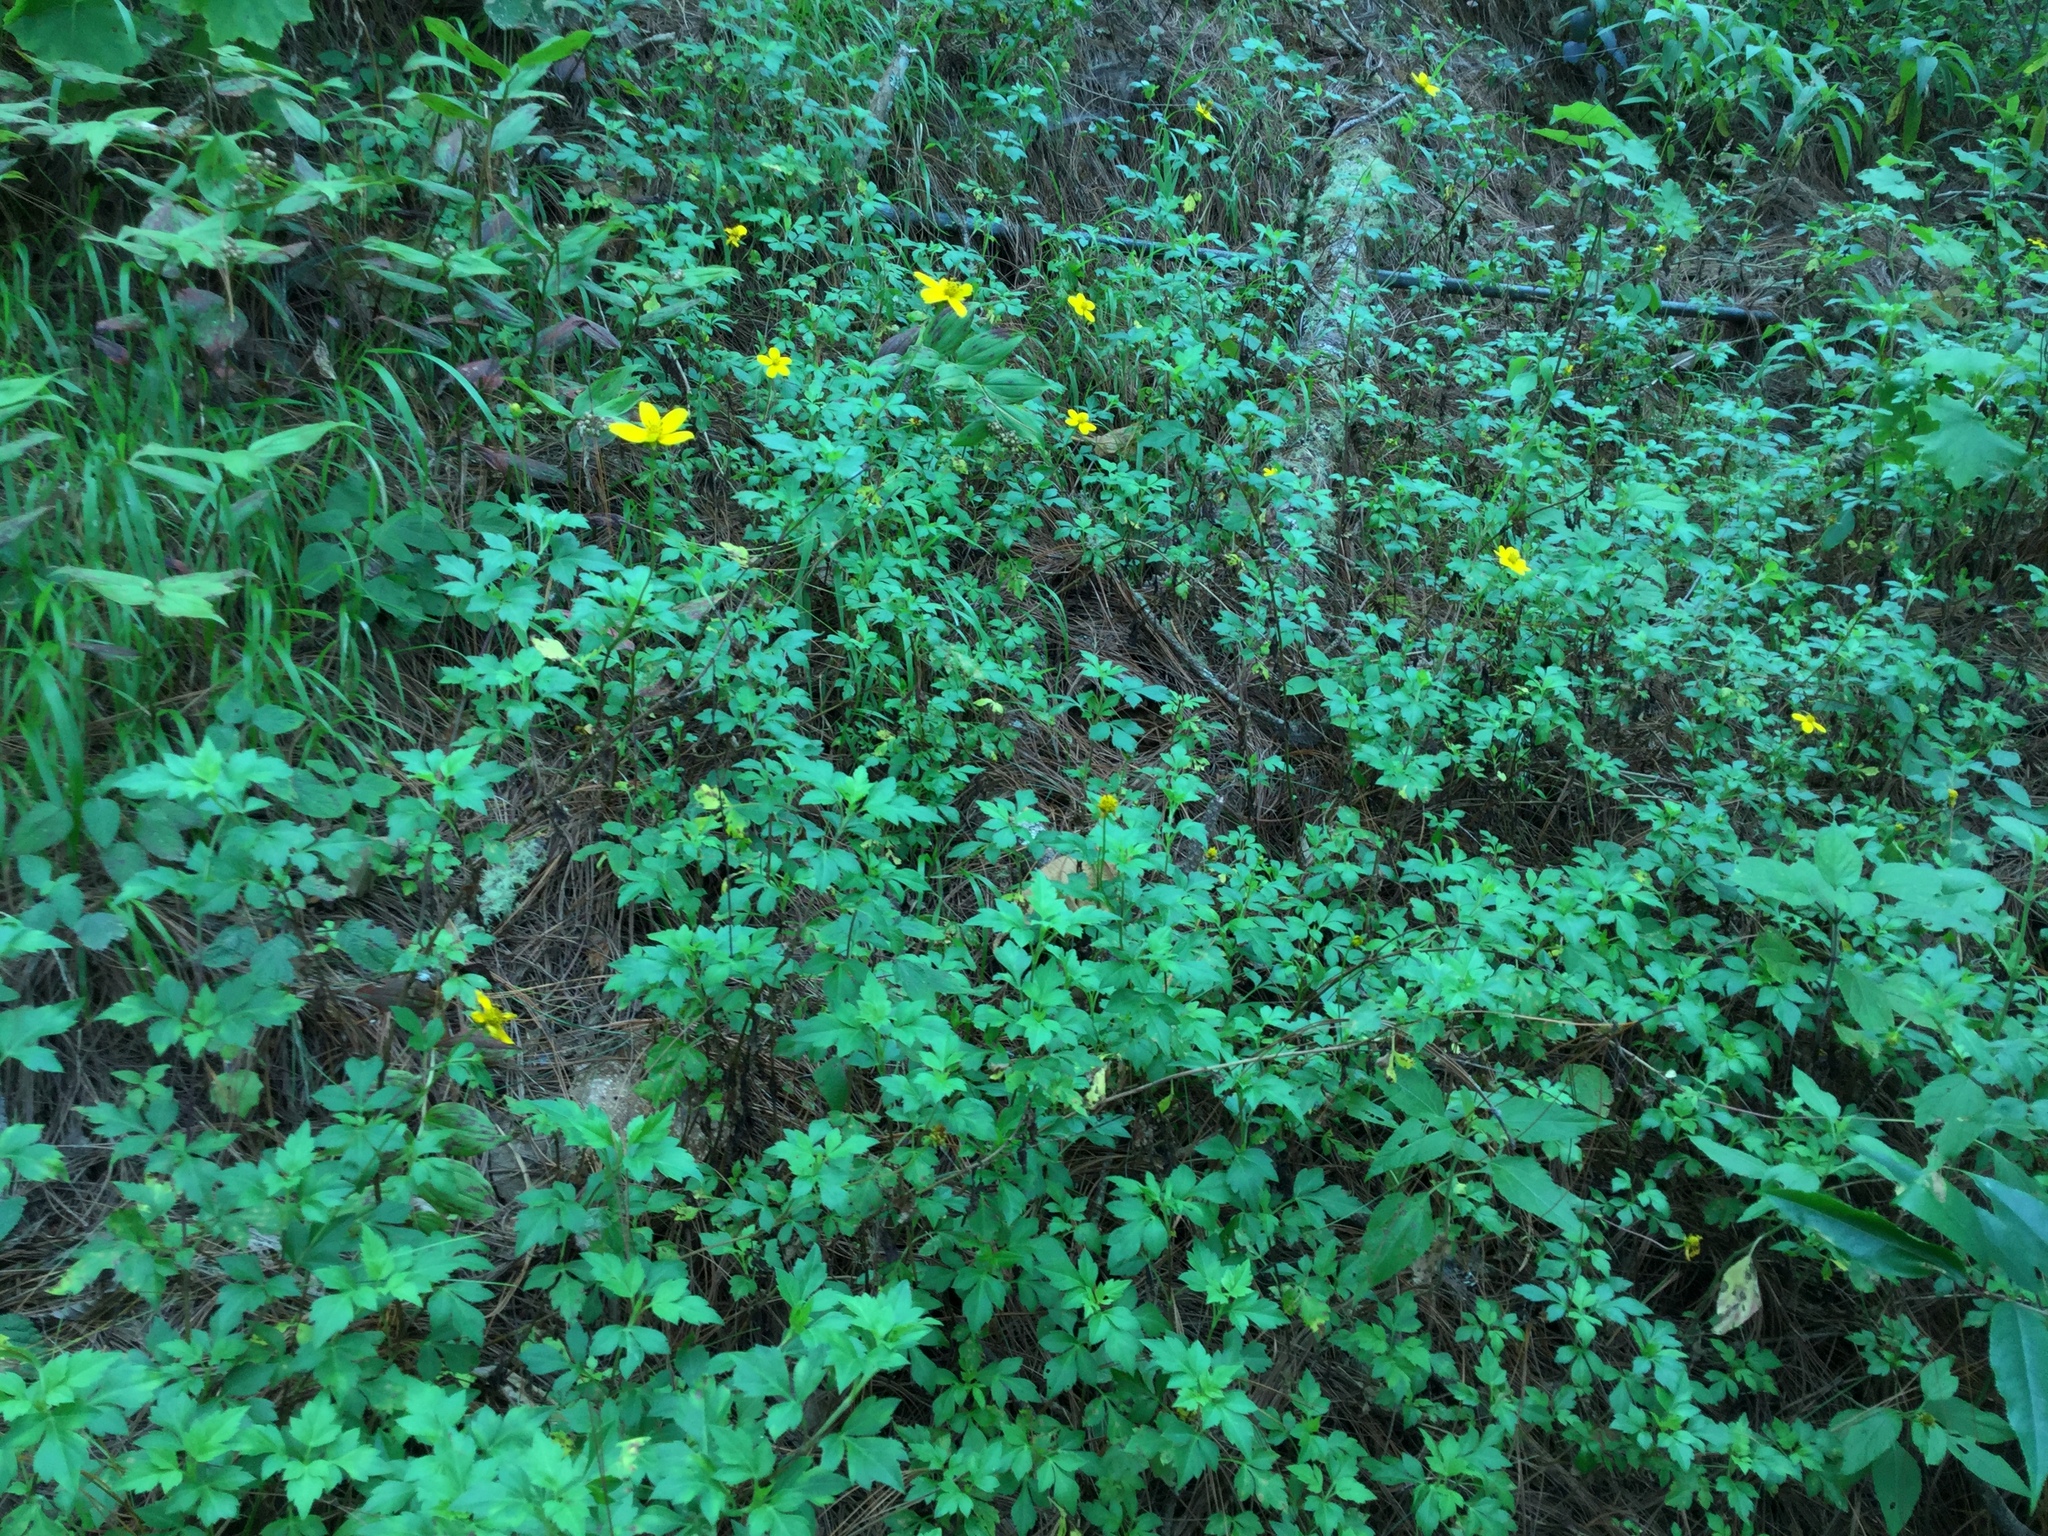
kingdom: Plantae
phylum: Tracheophyta
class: Magnoliopsida
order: Asterales
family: Asteraceae
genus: Bidens
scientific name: Bidens ostruthioides
